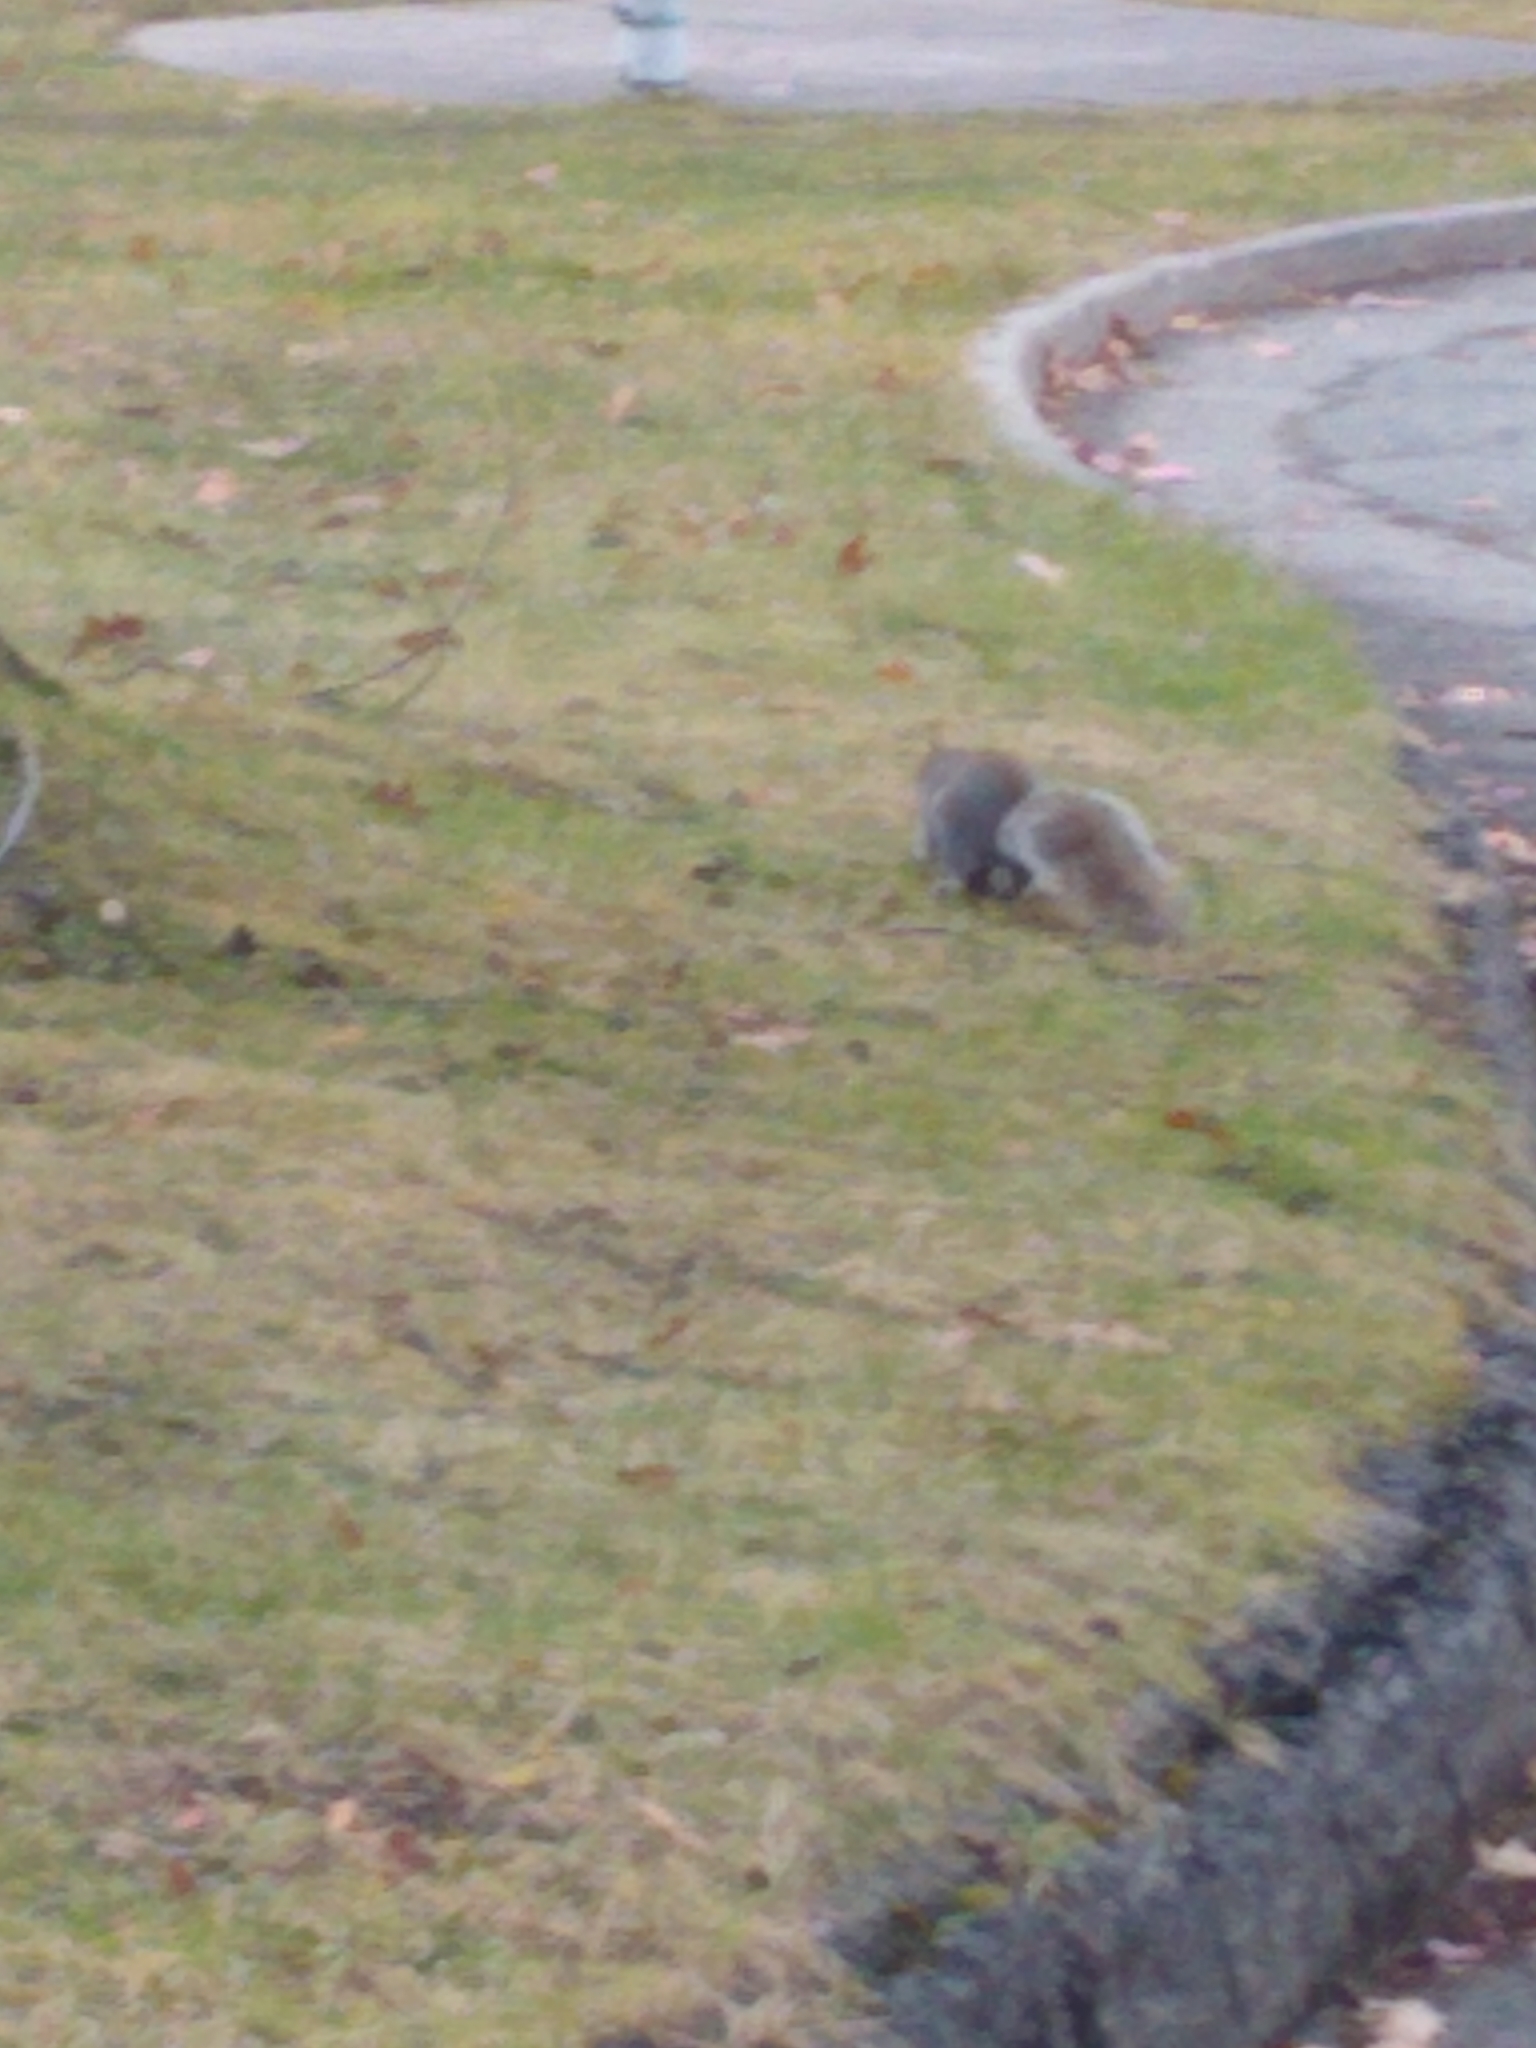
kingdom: Animalia
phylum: Chordata
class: Mammalia
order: Rodentia
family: Sciuridae
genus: Sciurus
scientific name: Sciurus carolinensis
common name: Eastern gray squirrel
